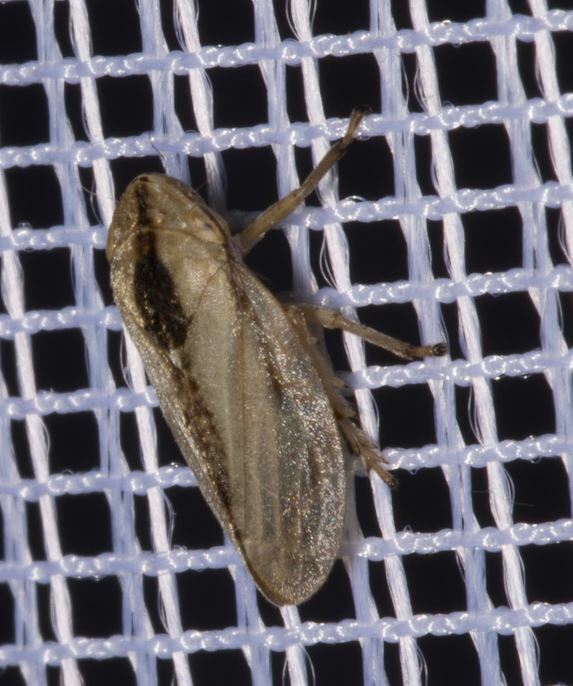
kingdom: Animalia
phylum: Arthropoda
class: Insecta
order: Hemiptera
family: Aphrophoridae
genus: Philaenus
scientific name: Philaenus spumarius
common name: Meadow spittlebug
